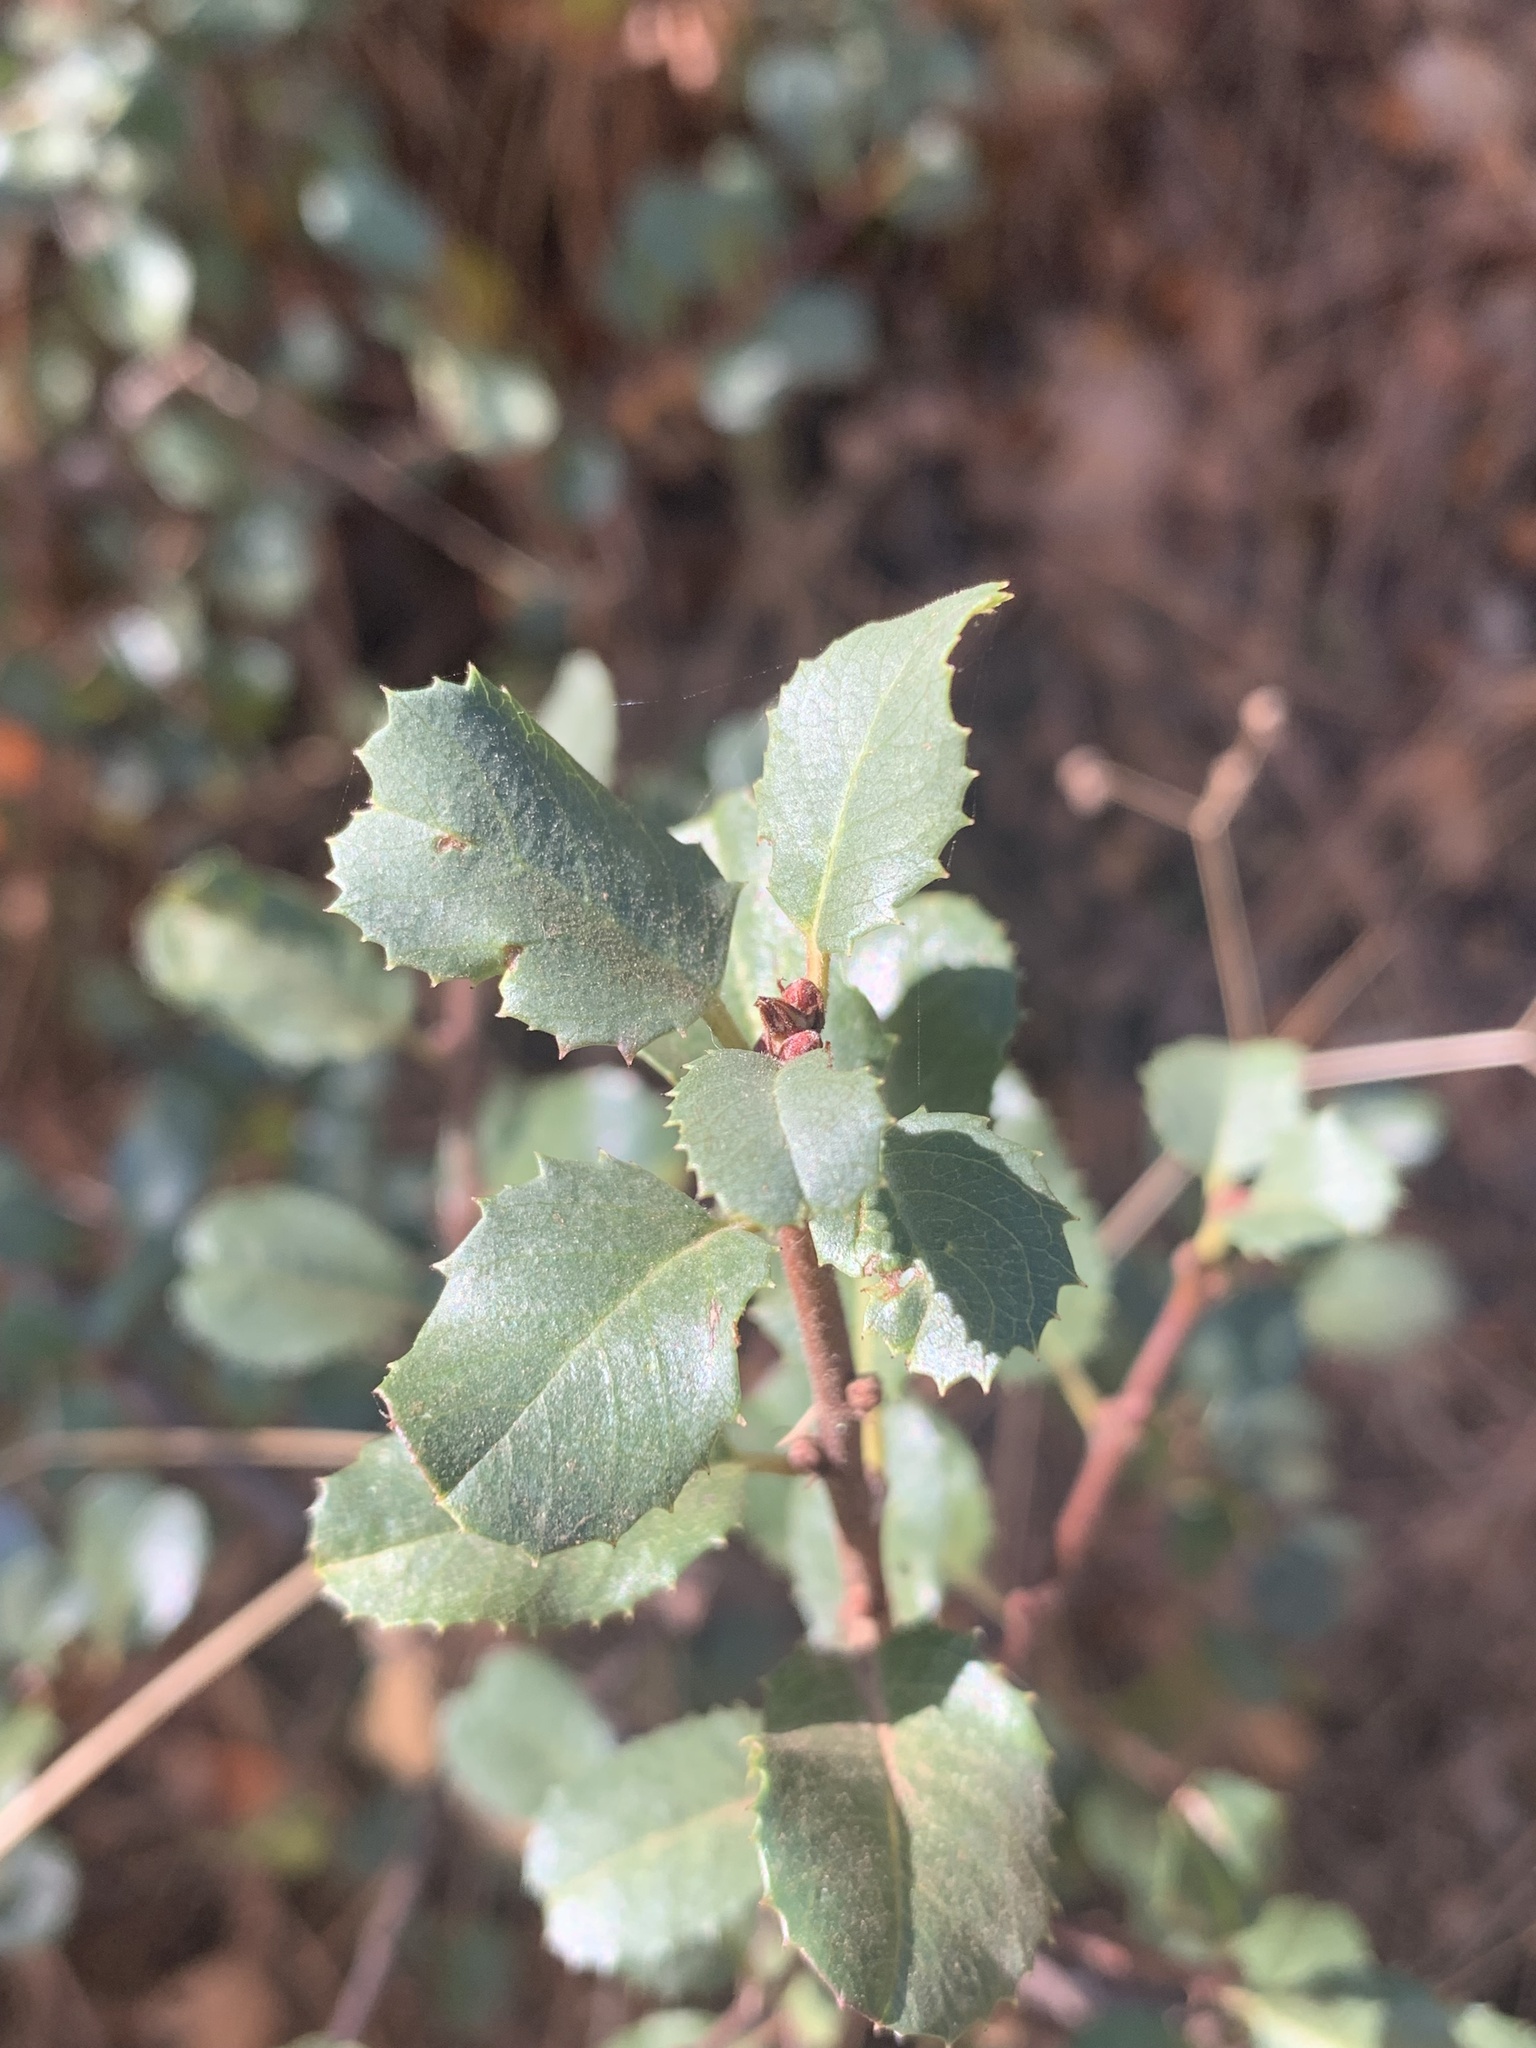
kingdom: Plantae
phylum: Tracheophyta
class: Magnoliopsida
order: Rosales
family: Rhamnaceae
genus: Endotropis
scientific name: Endotropis crocea
